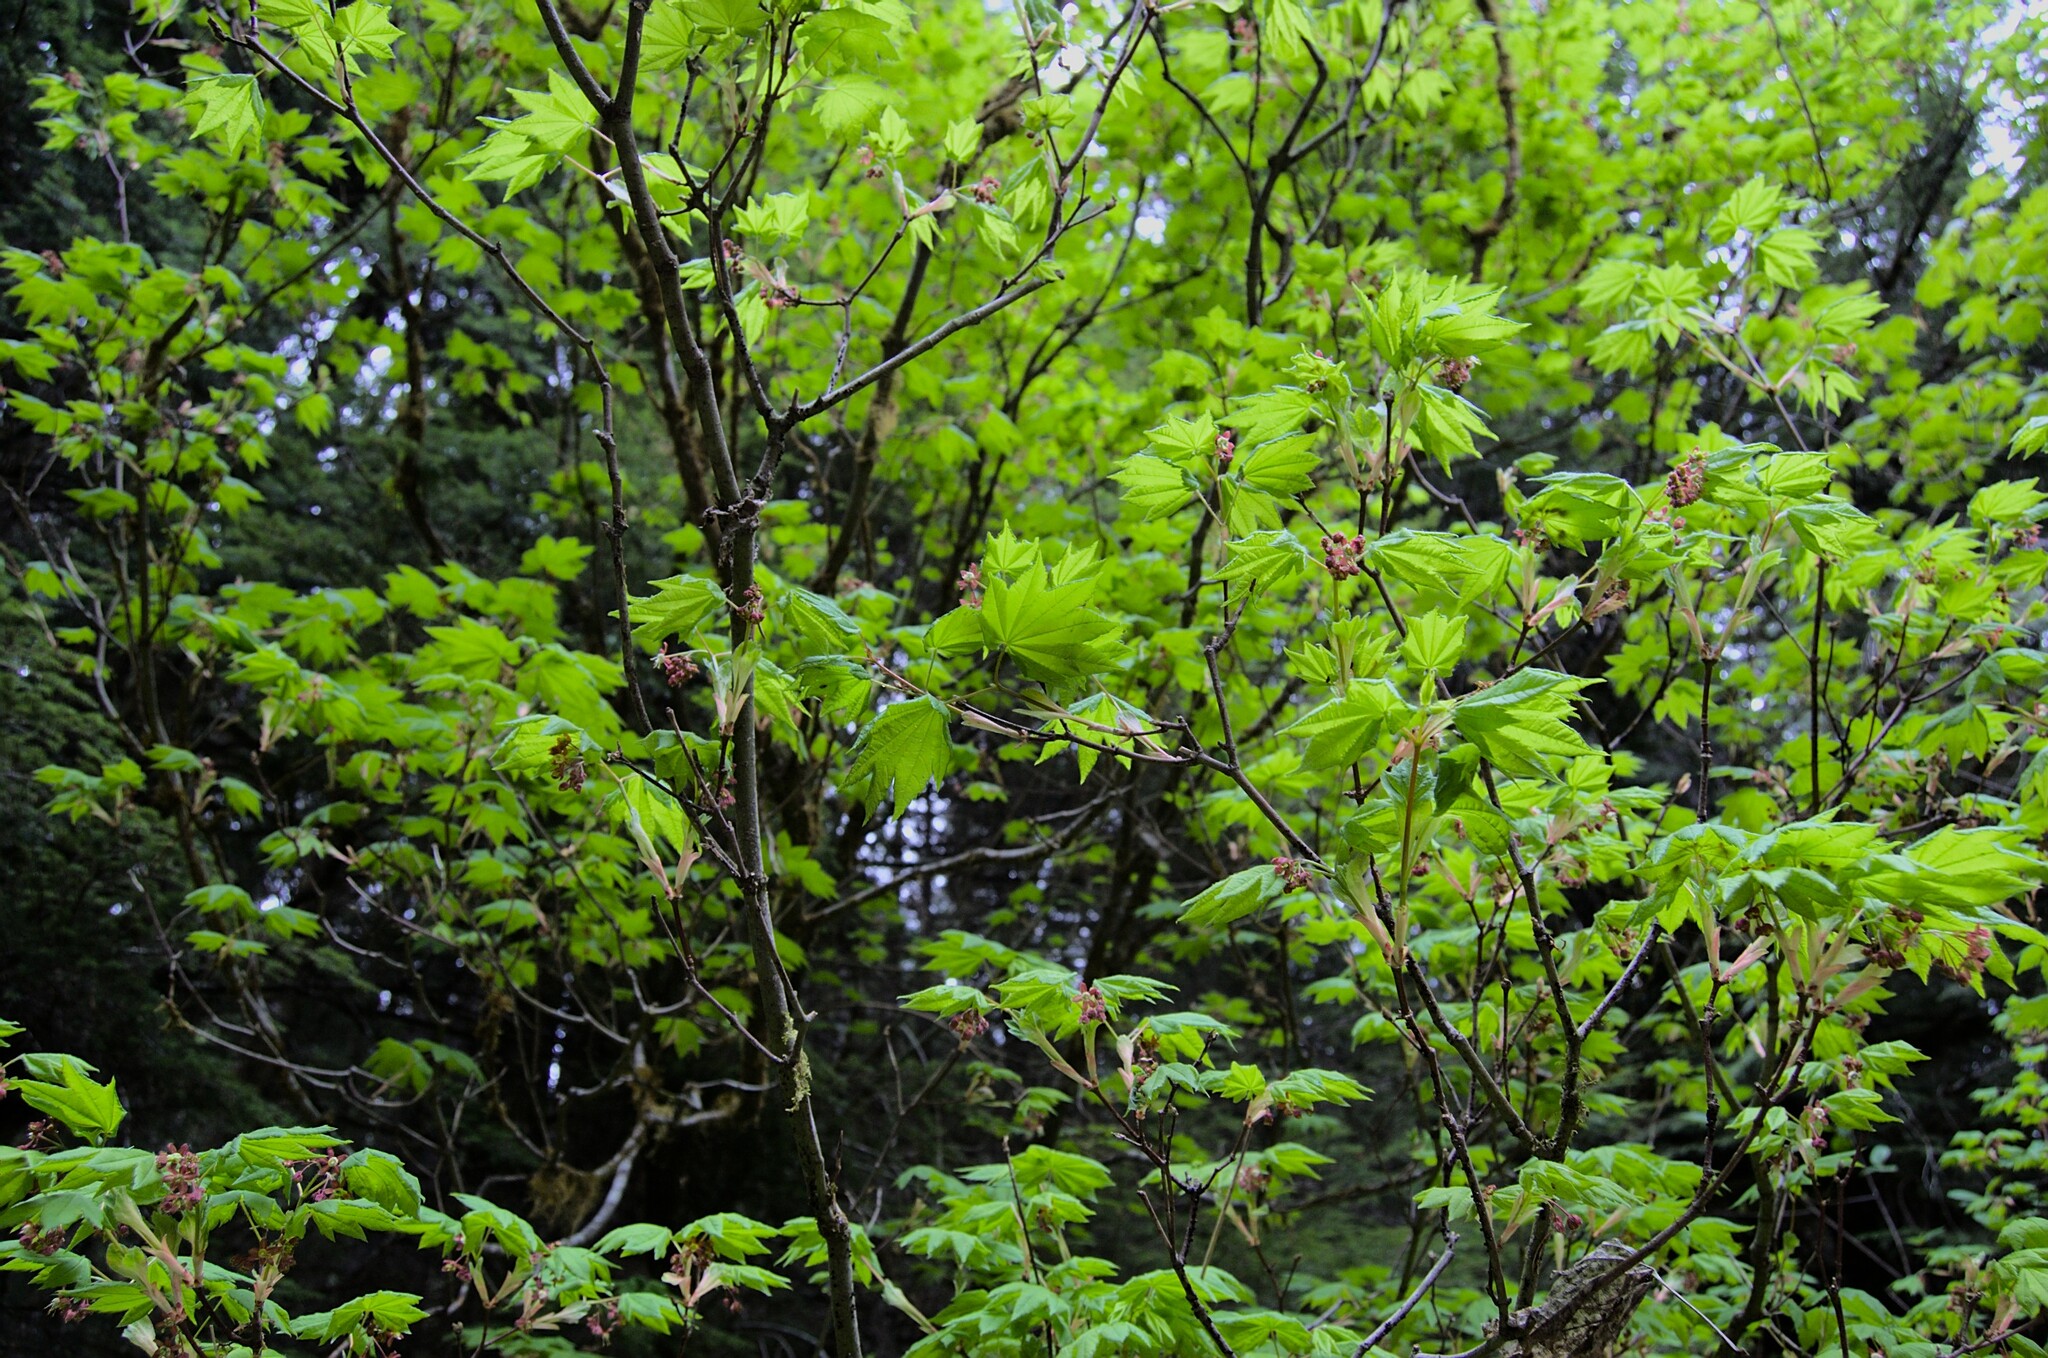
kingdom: Plantae
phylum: Tracheophyta
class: Magnoliopsida
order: Sapindales
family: Sapindaceae
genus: Acer
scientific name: Acer circinatum
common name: Vine maple
